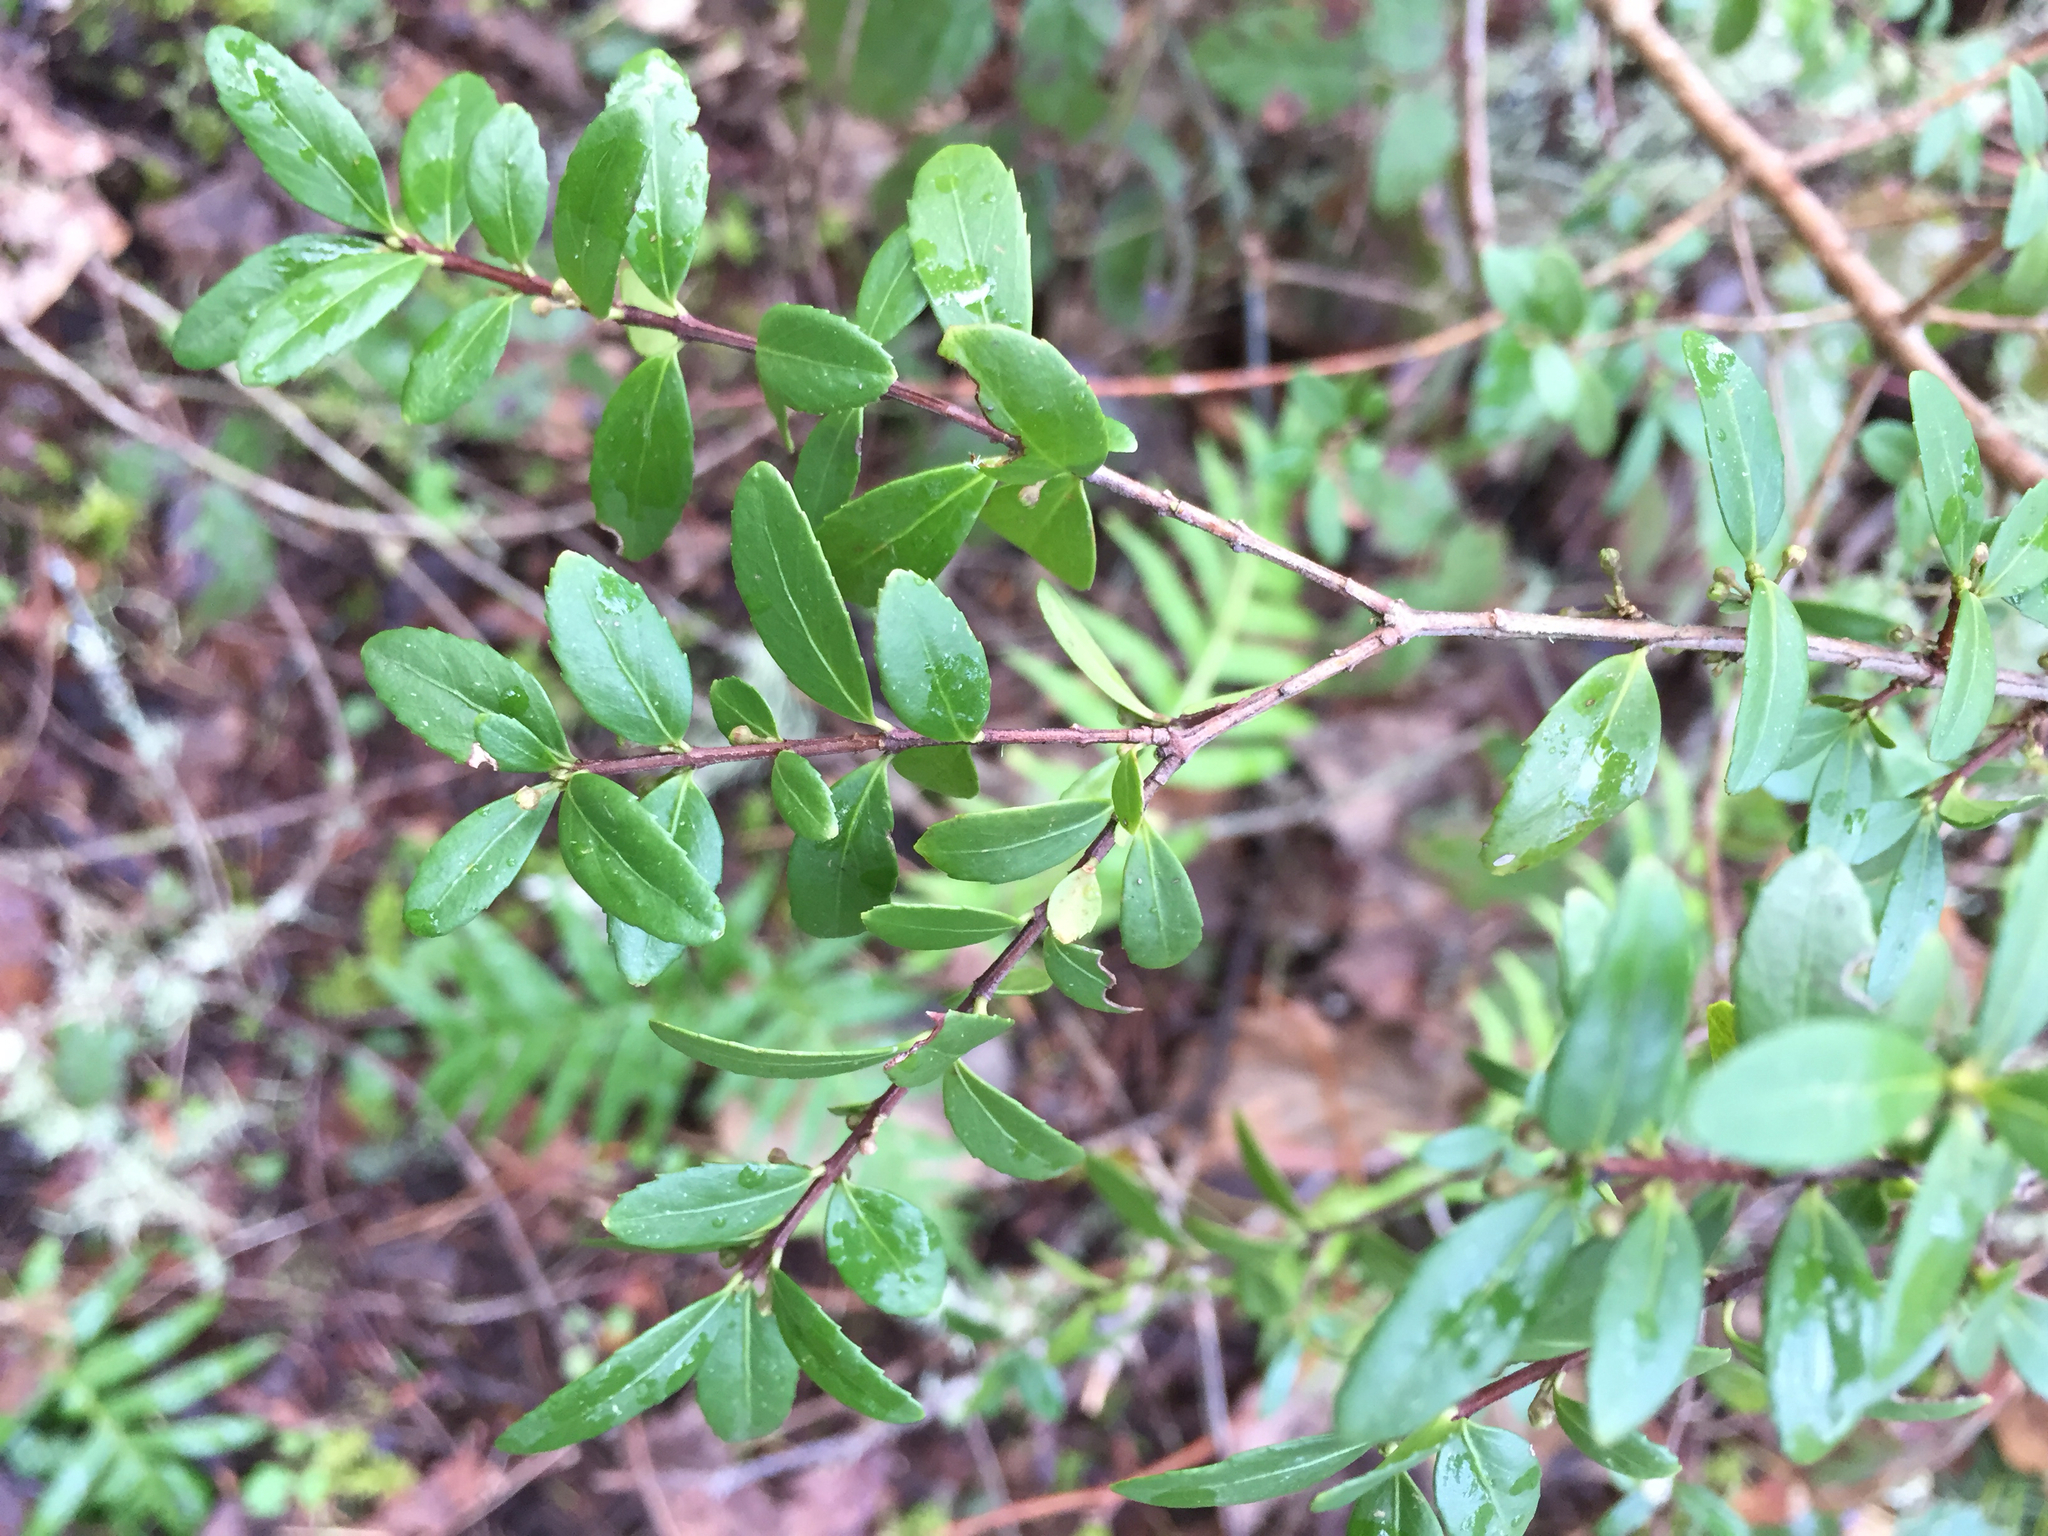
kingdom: Plantae
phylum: Tracheophyta
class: Magnoliopsida
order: Celastrales
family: Celastraceae
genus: Paxistima
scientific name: Paxistima myrsinites
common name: Mountain-lover
